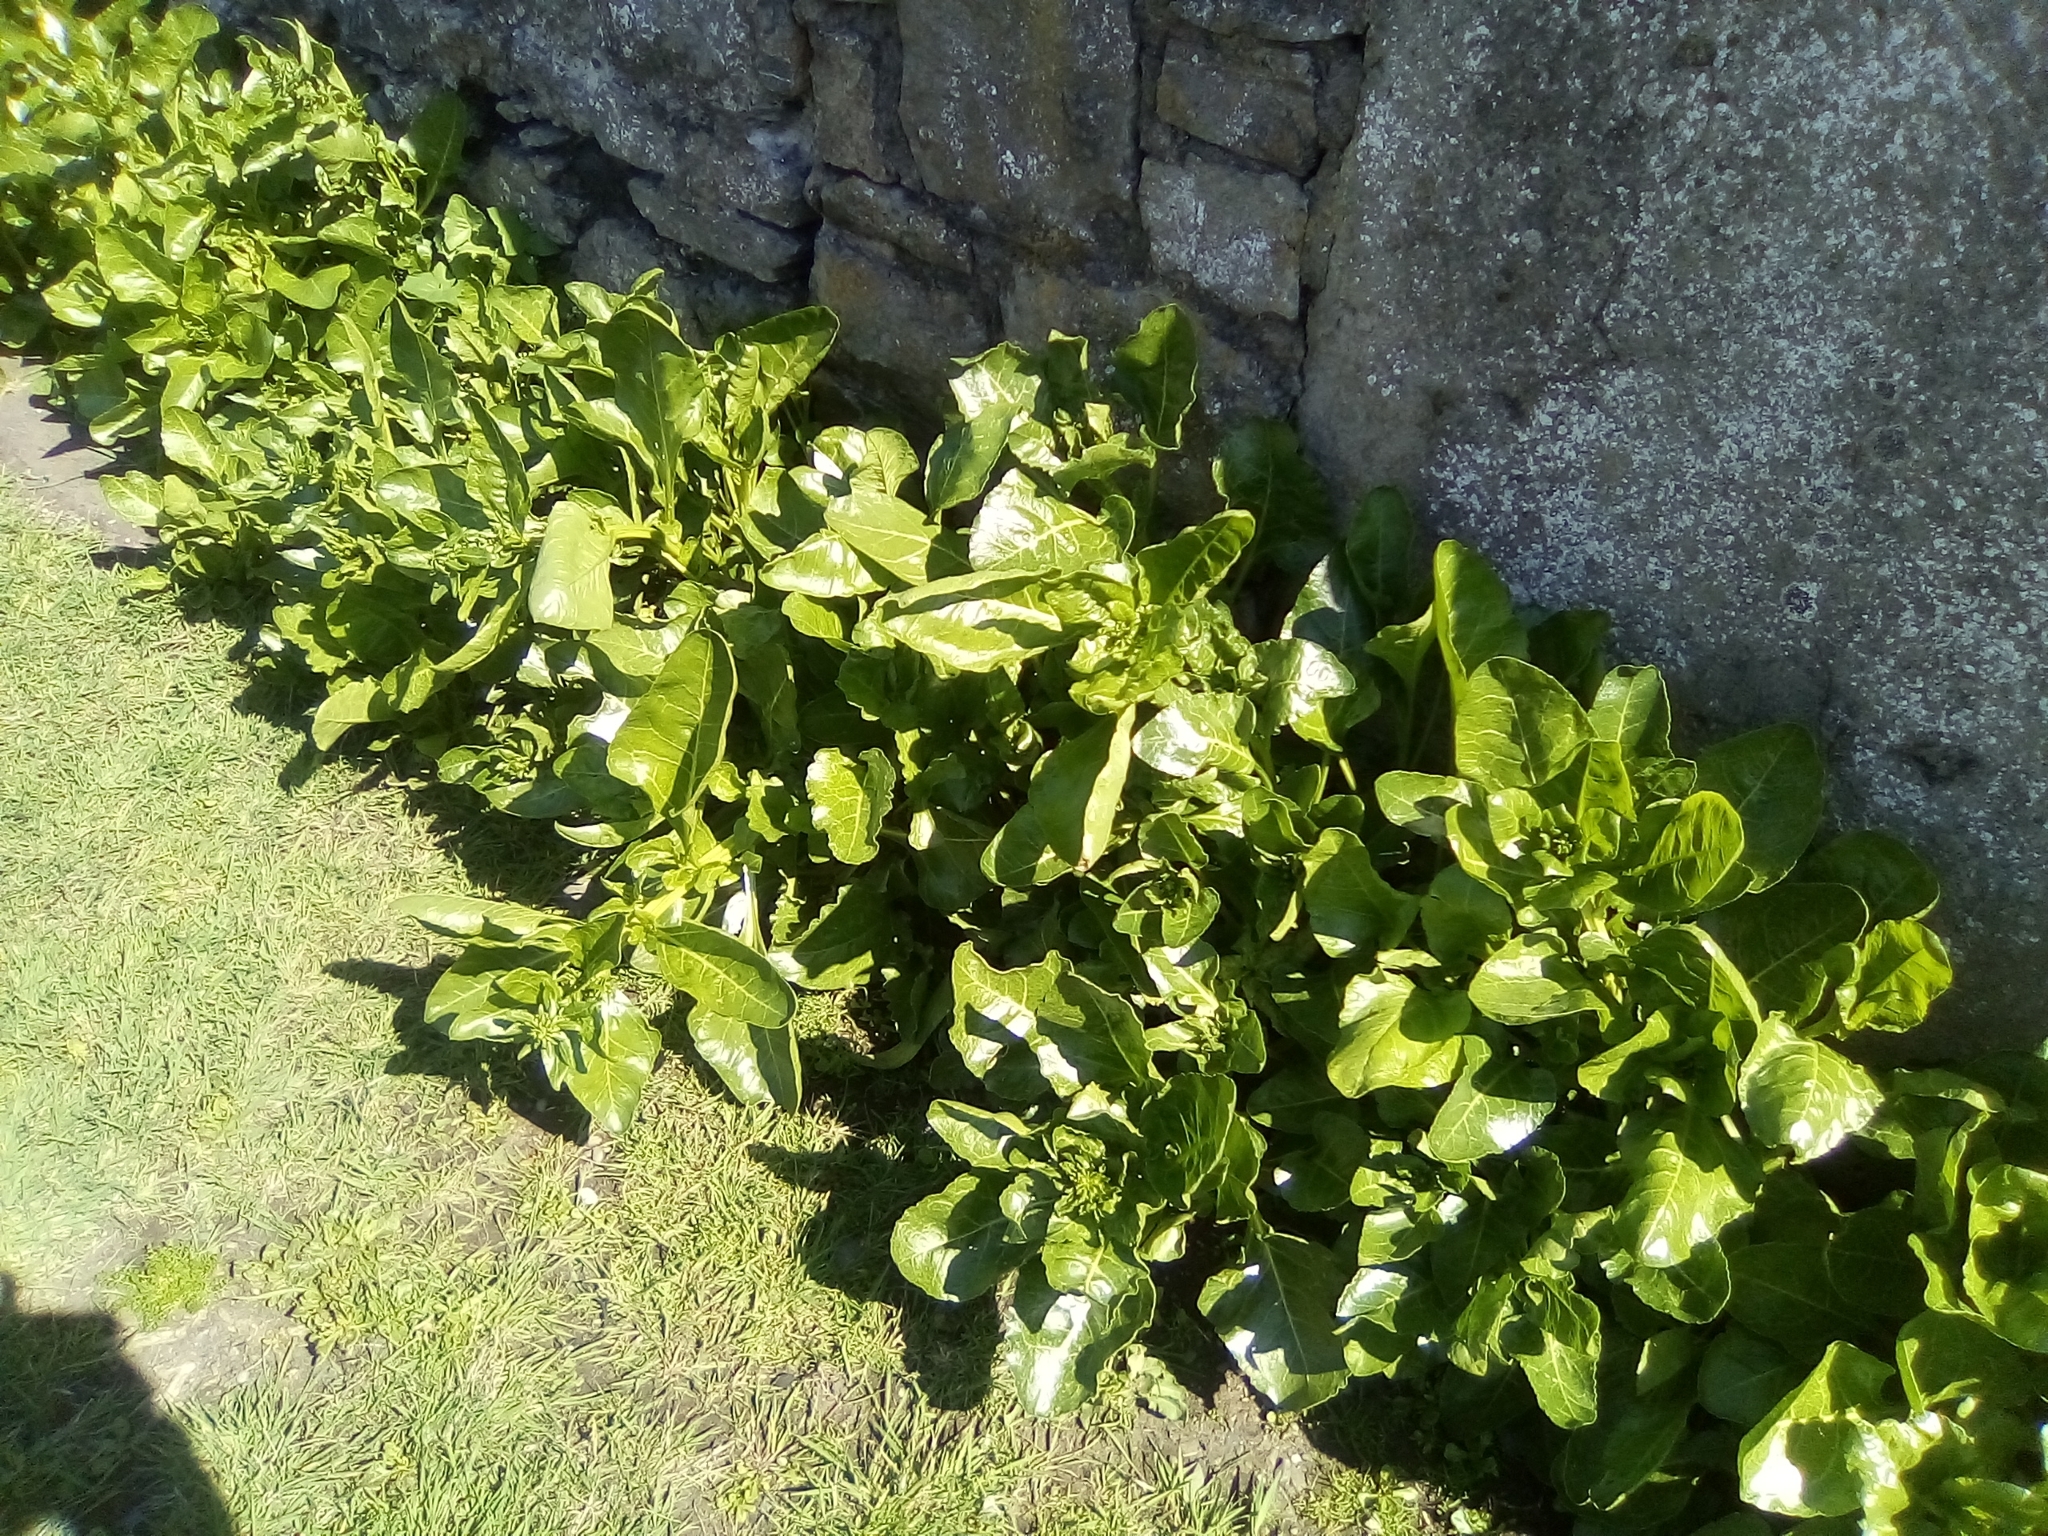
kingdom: Plantae
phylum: Tracheophyta
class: Magnoliopsida
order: Caryophyllales
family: Amaranthaceae
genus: Beta
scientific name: Beta vulgaris
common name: Beet
